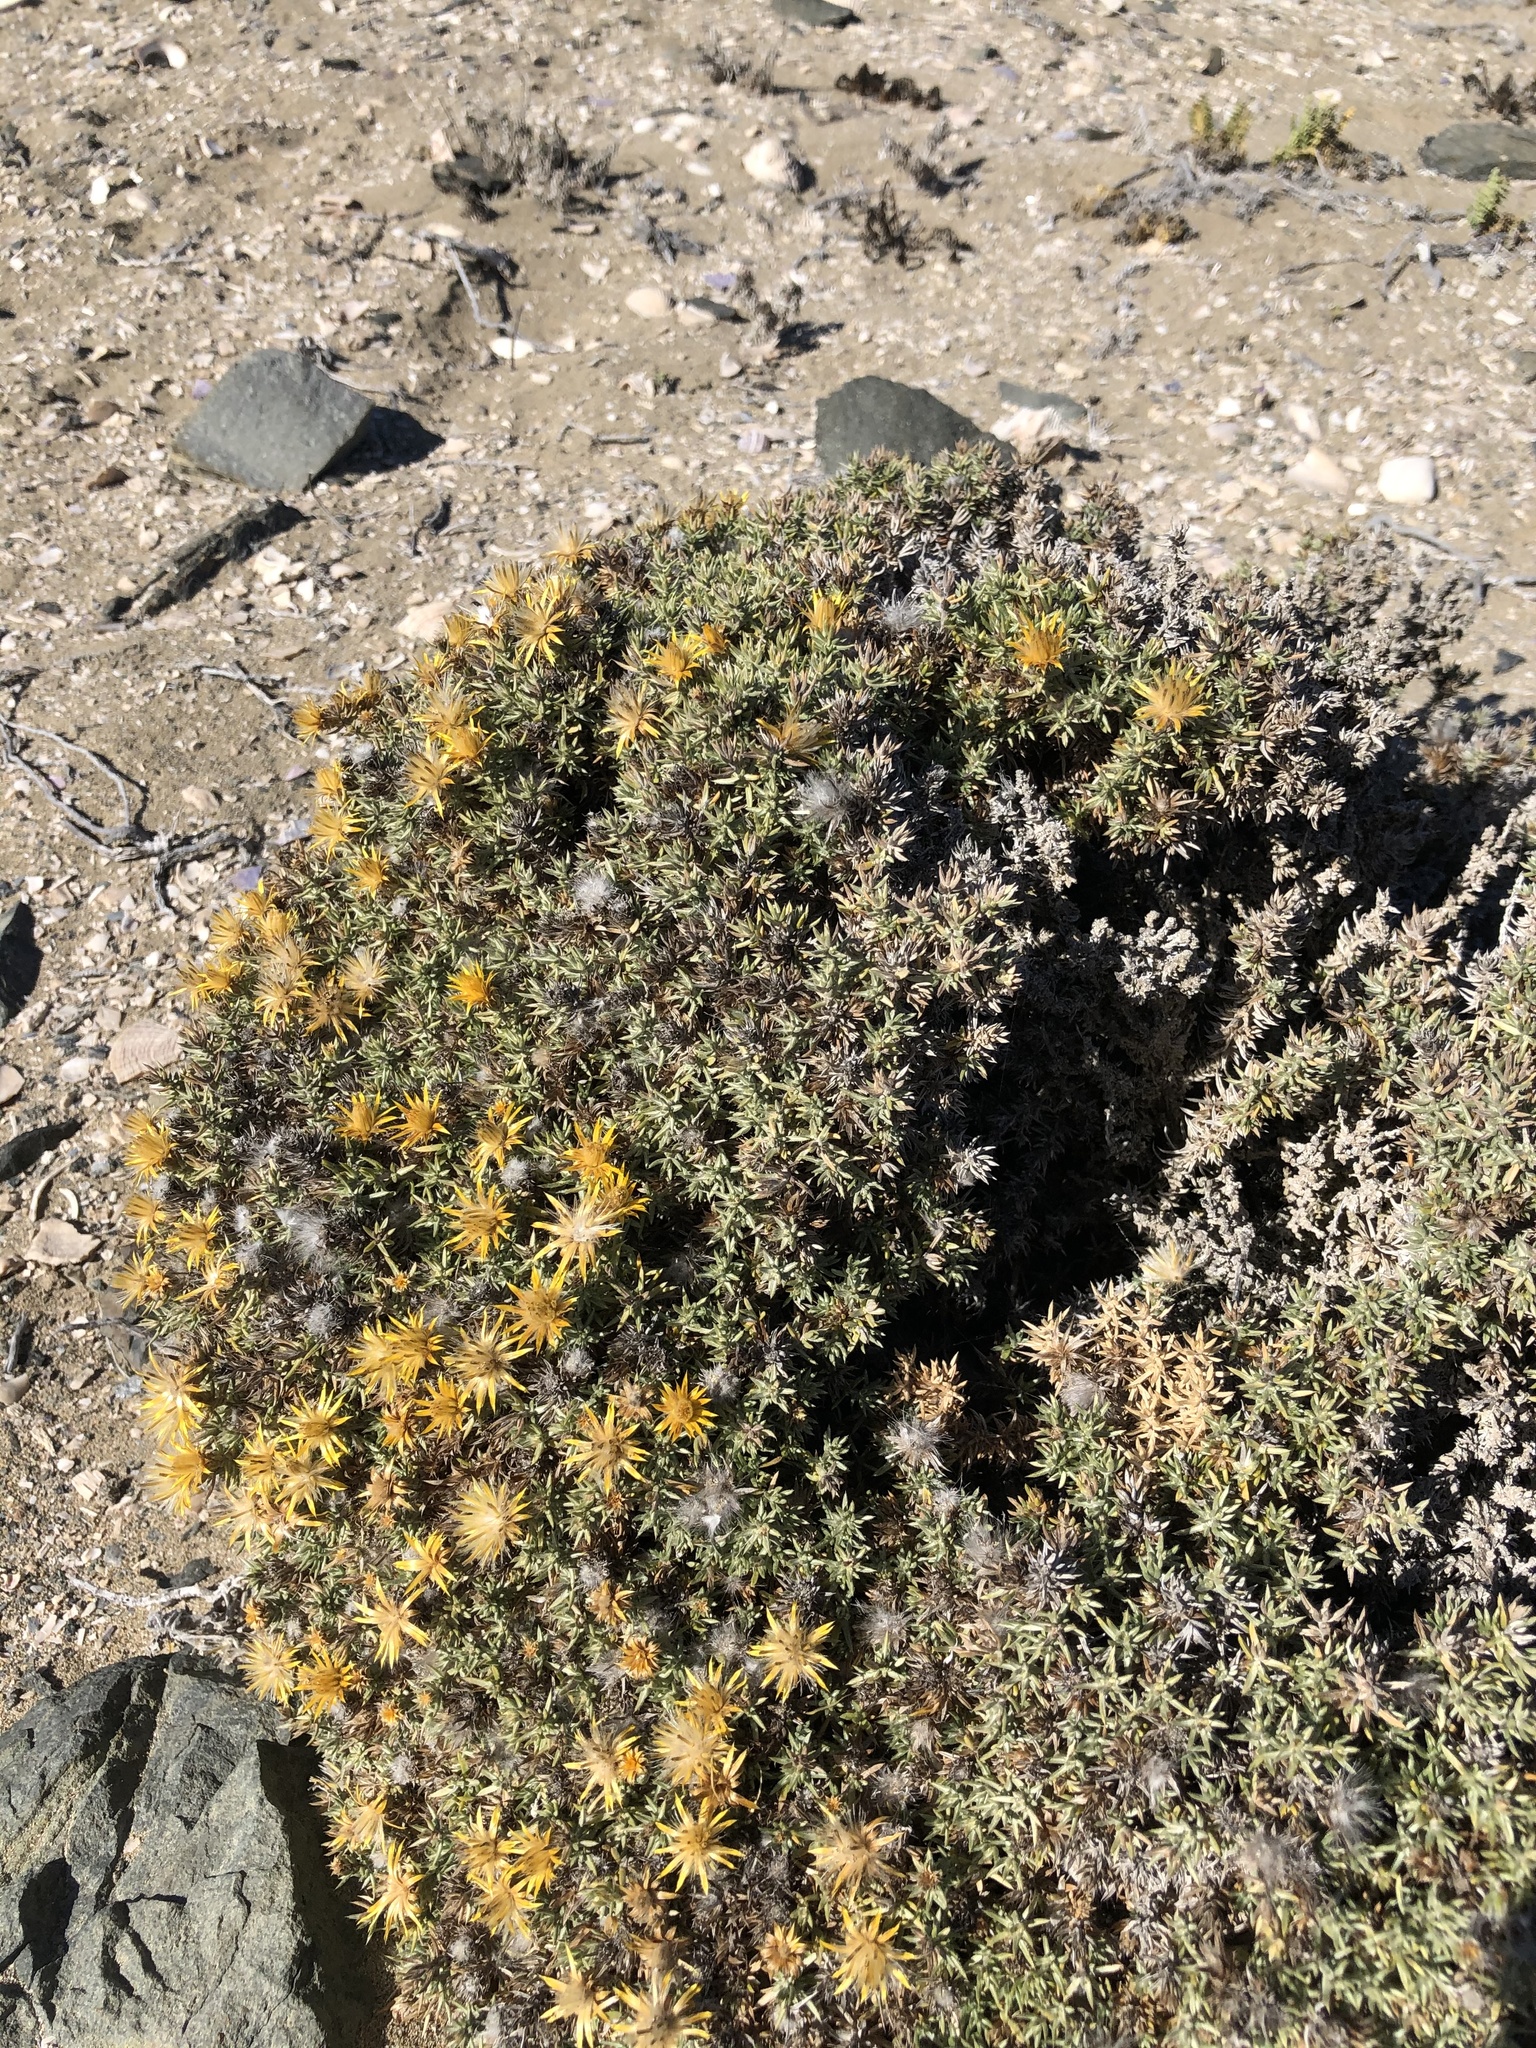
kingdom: Plantae
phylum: Tracheophyta
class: Magnoliopsida
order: Asterales
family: Asteraceae
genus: Chuquiraga
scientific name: Chuquiraga ulicina
